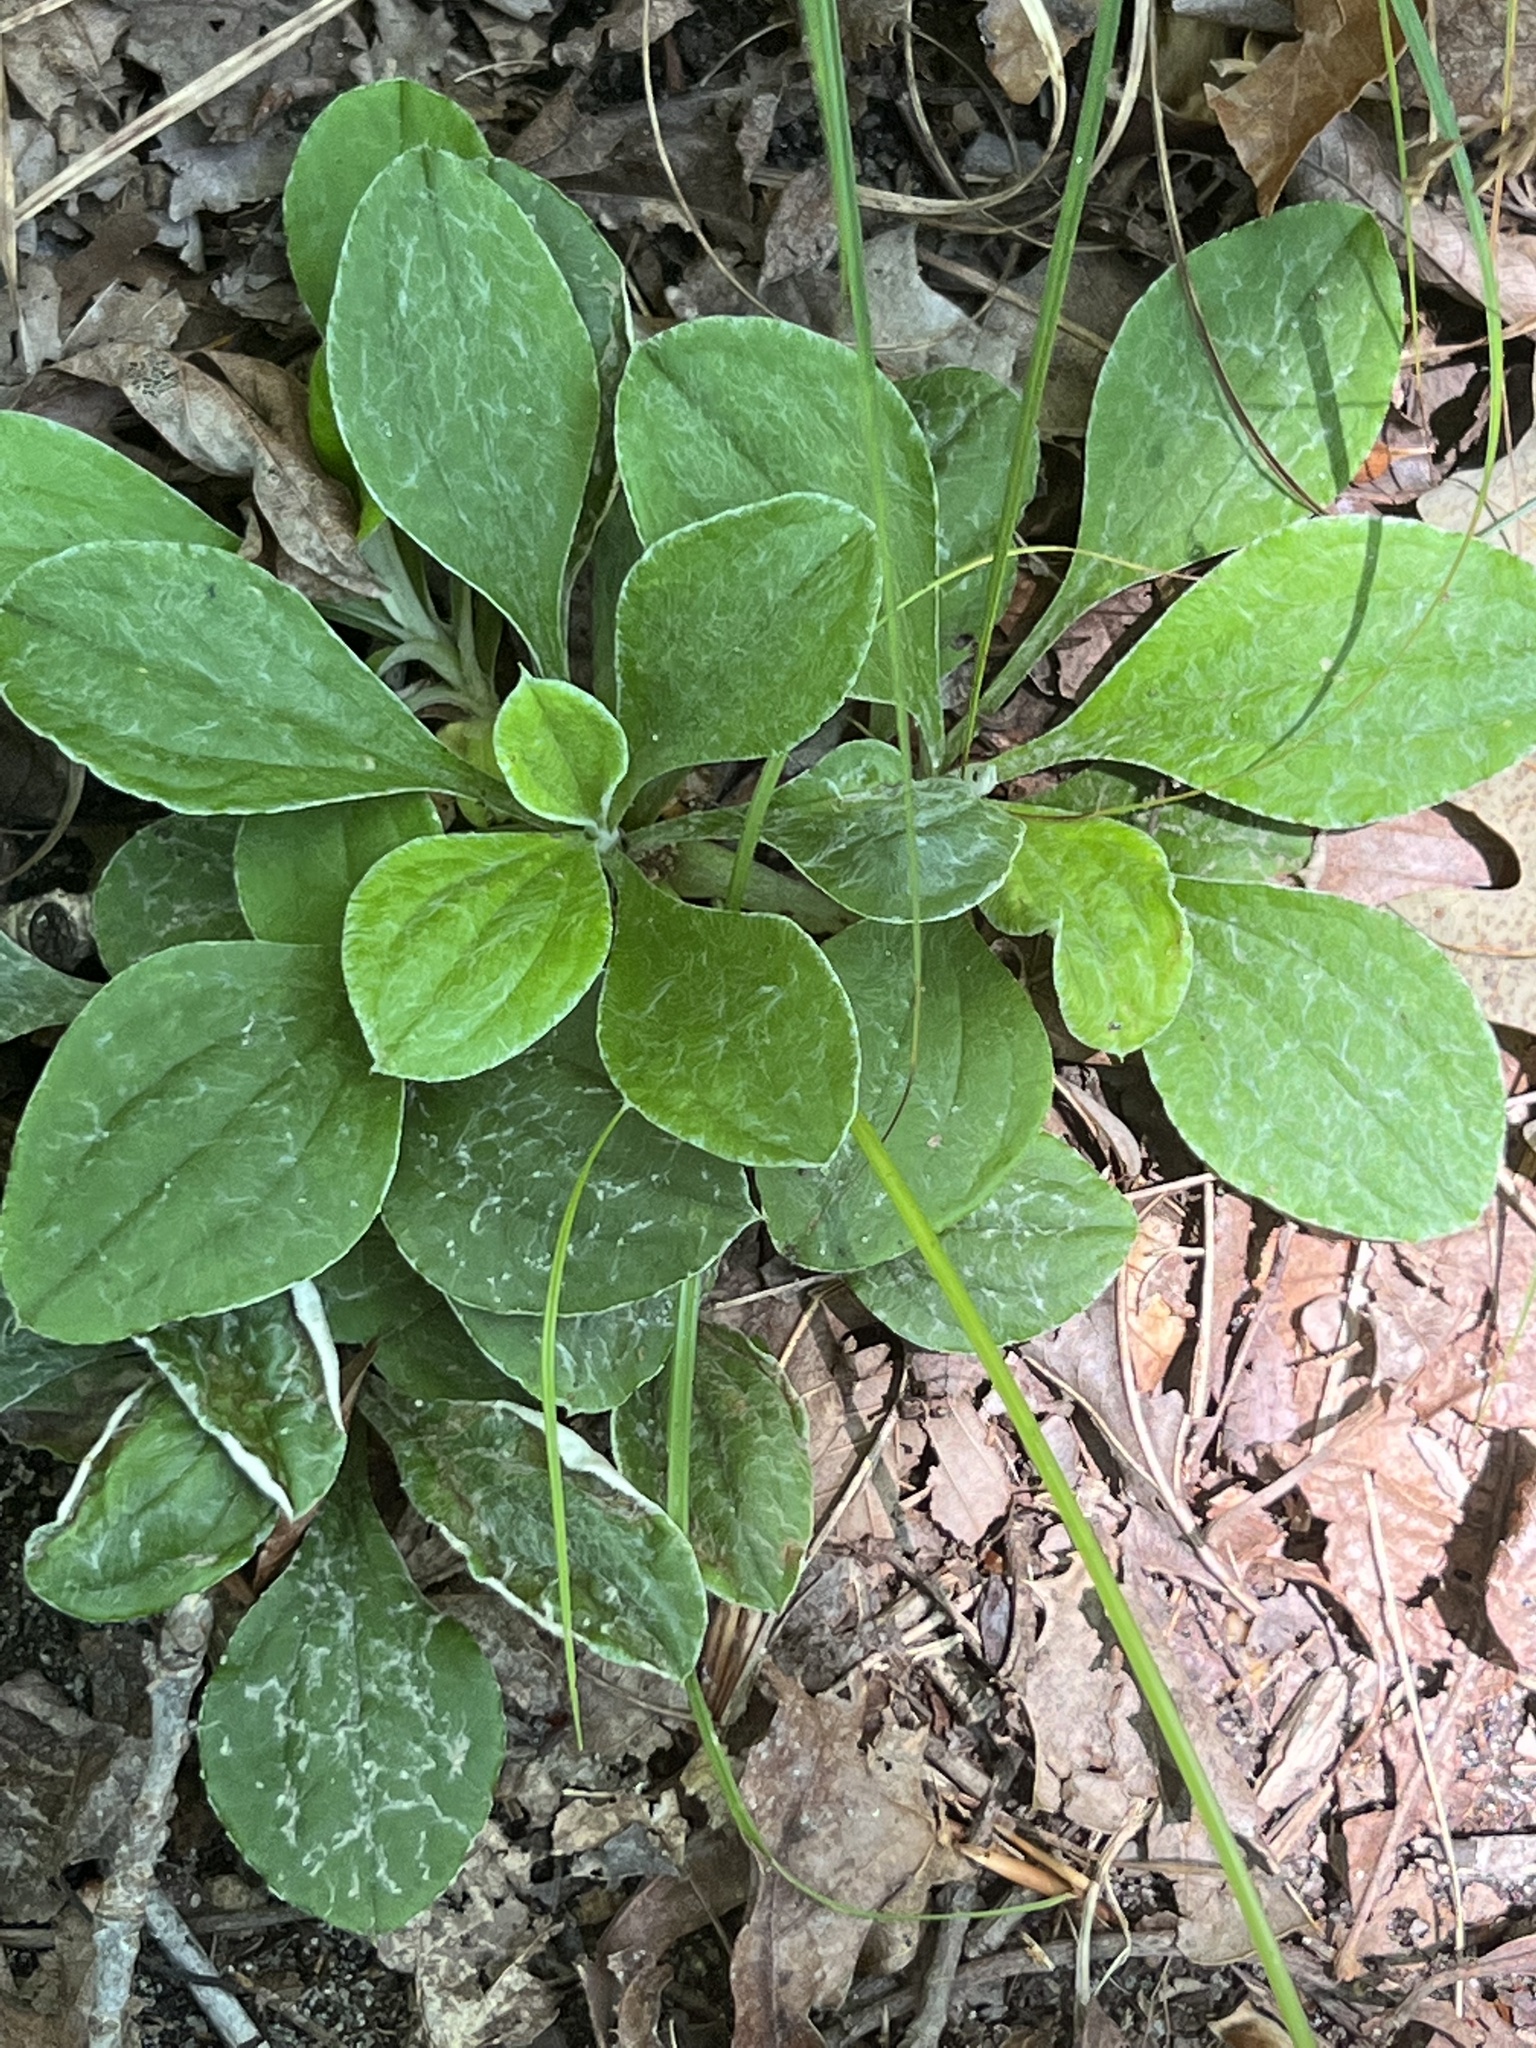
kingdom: Plantae
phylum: Tracheophyta
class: Magnoliopsida
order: Asterales
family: Asteraceae
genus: Antennaria
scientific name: Antennaria plantaginifolia
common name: Plantain-leaved pussytoes
